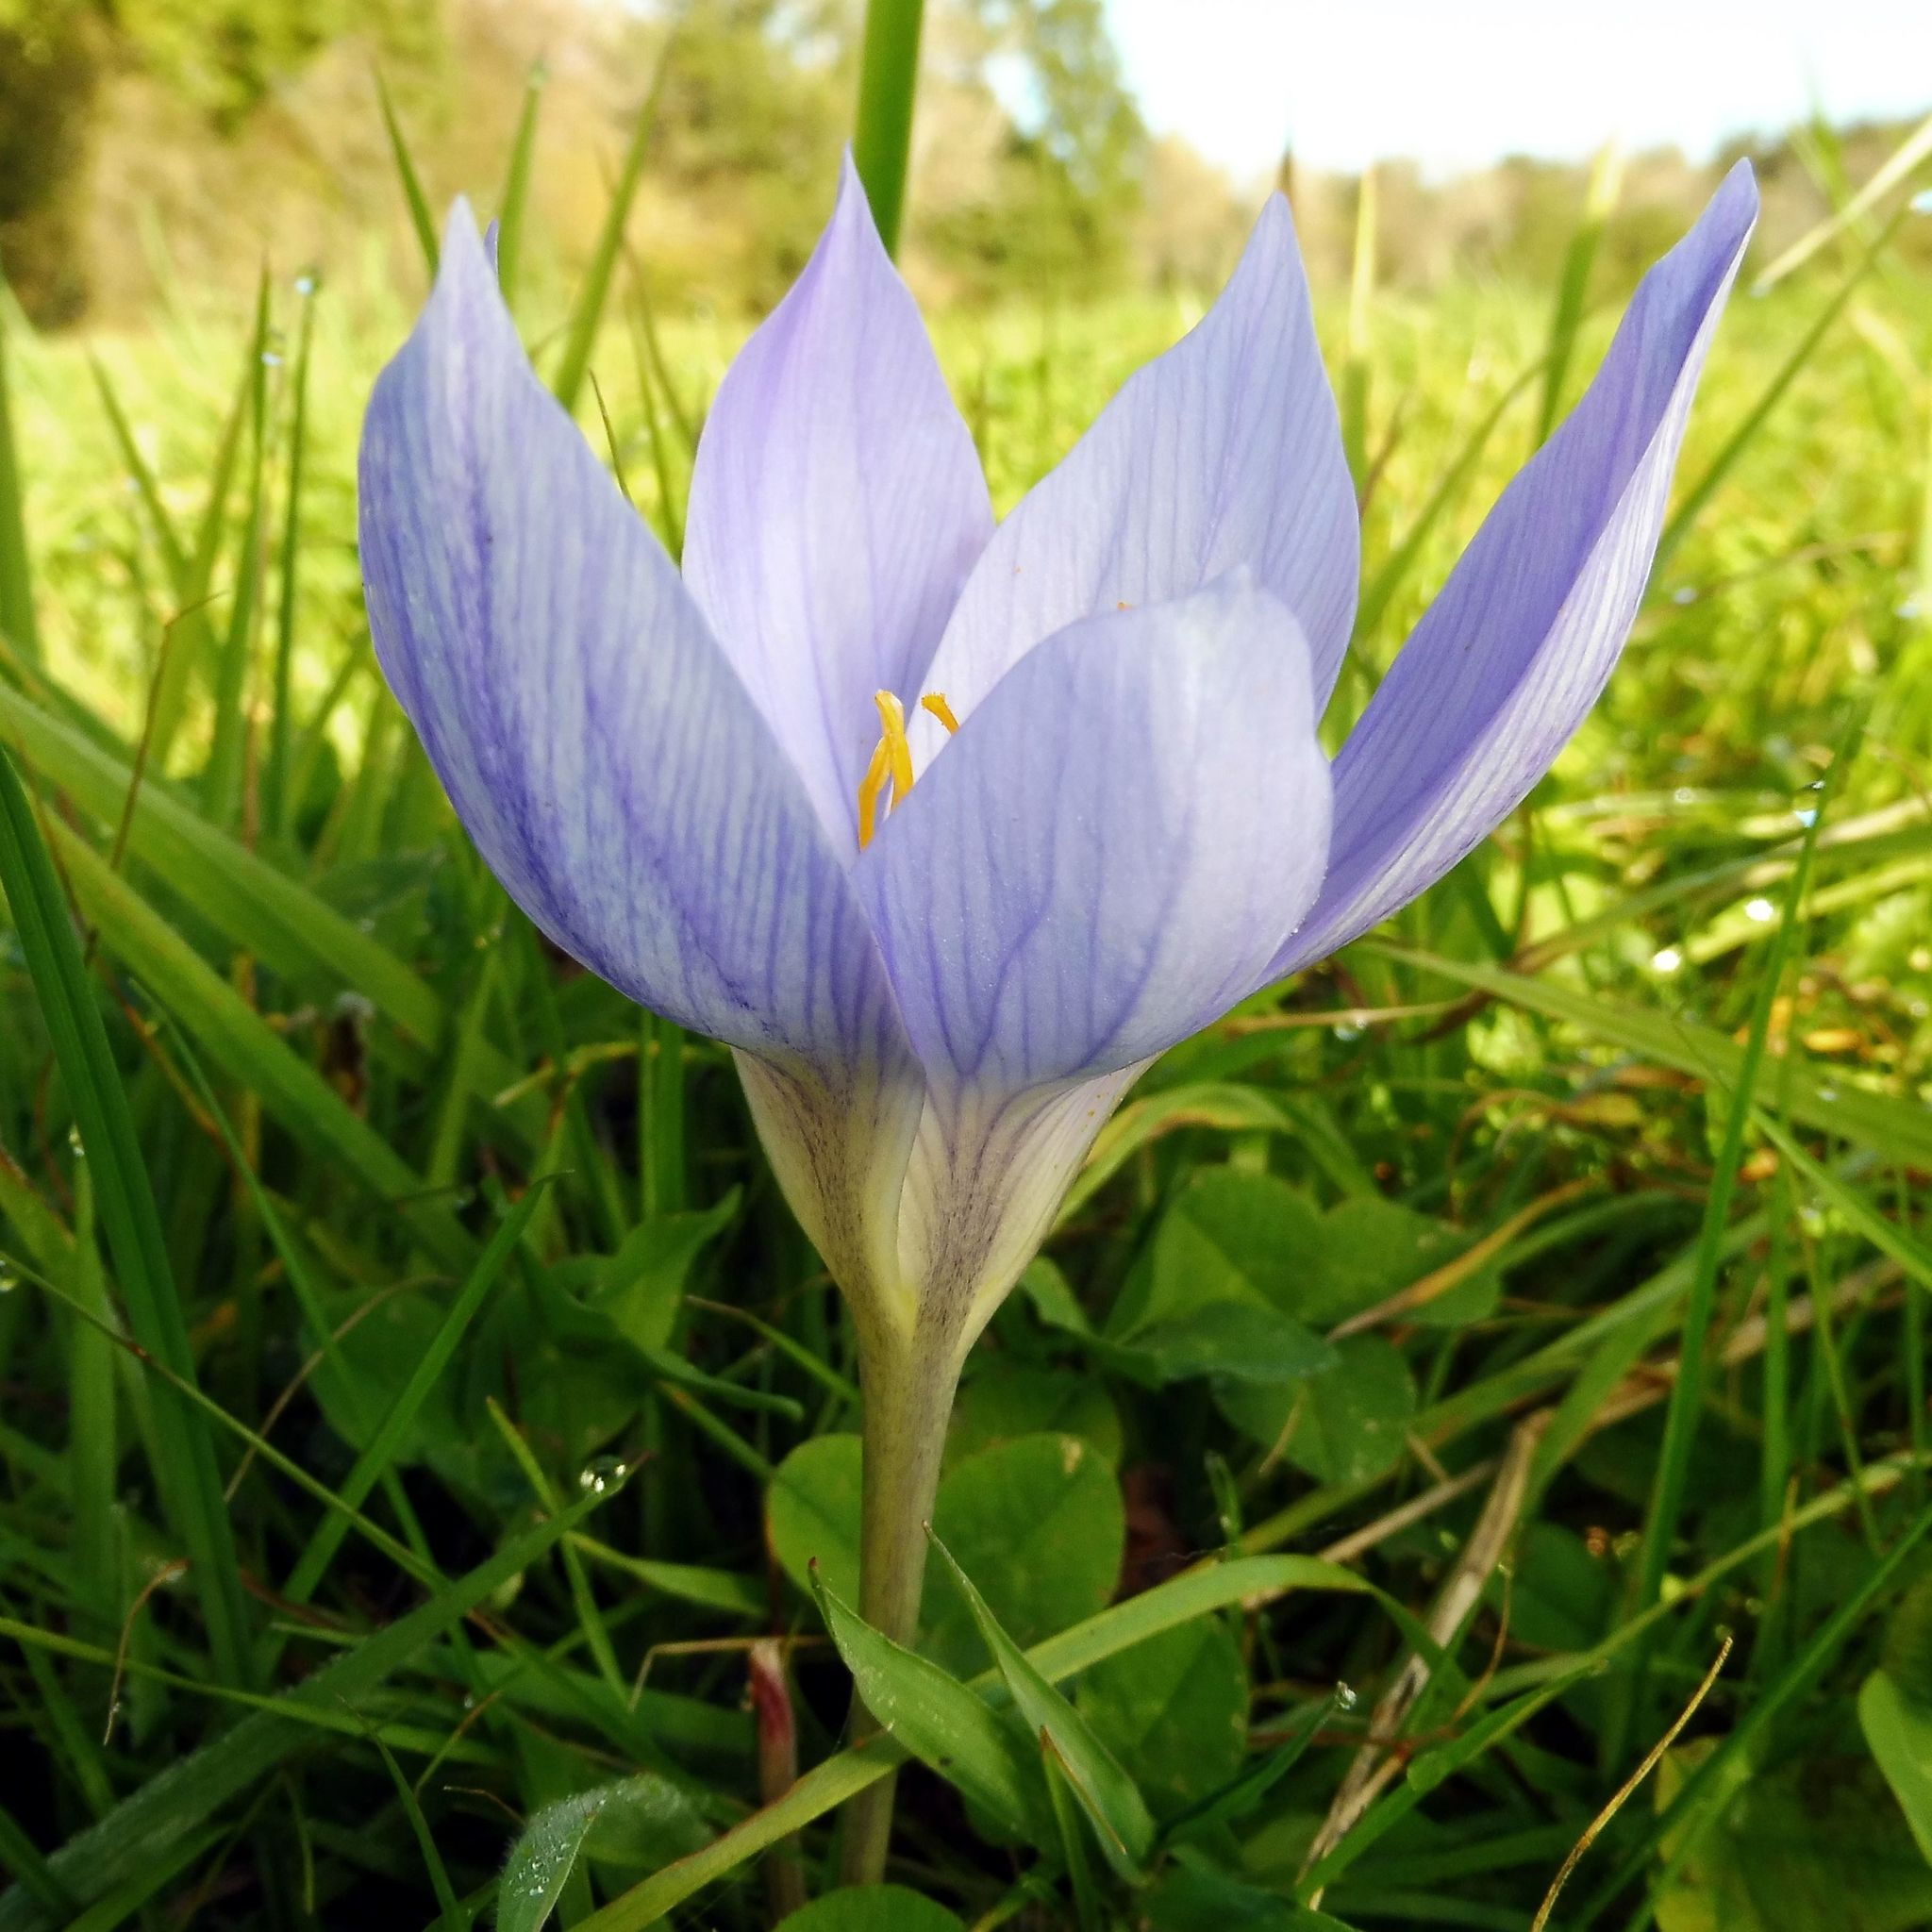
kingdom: Plantae
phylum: Tracheophyta
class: Liliopsida
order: Asparagales
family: Iridaceae
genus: Crocus
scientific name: Crocus speciosus
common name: Bieberstein's crocus
